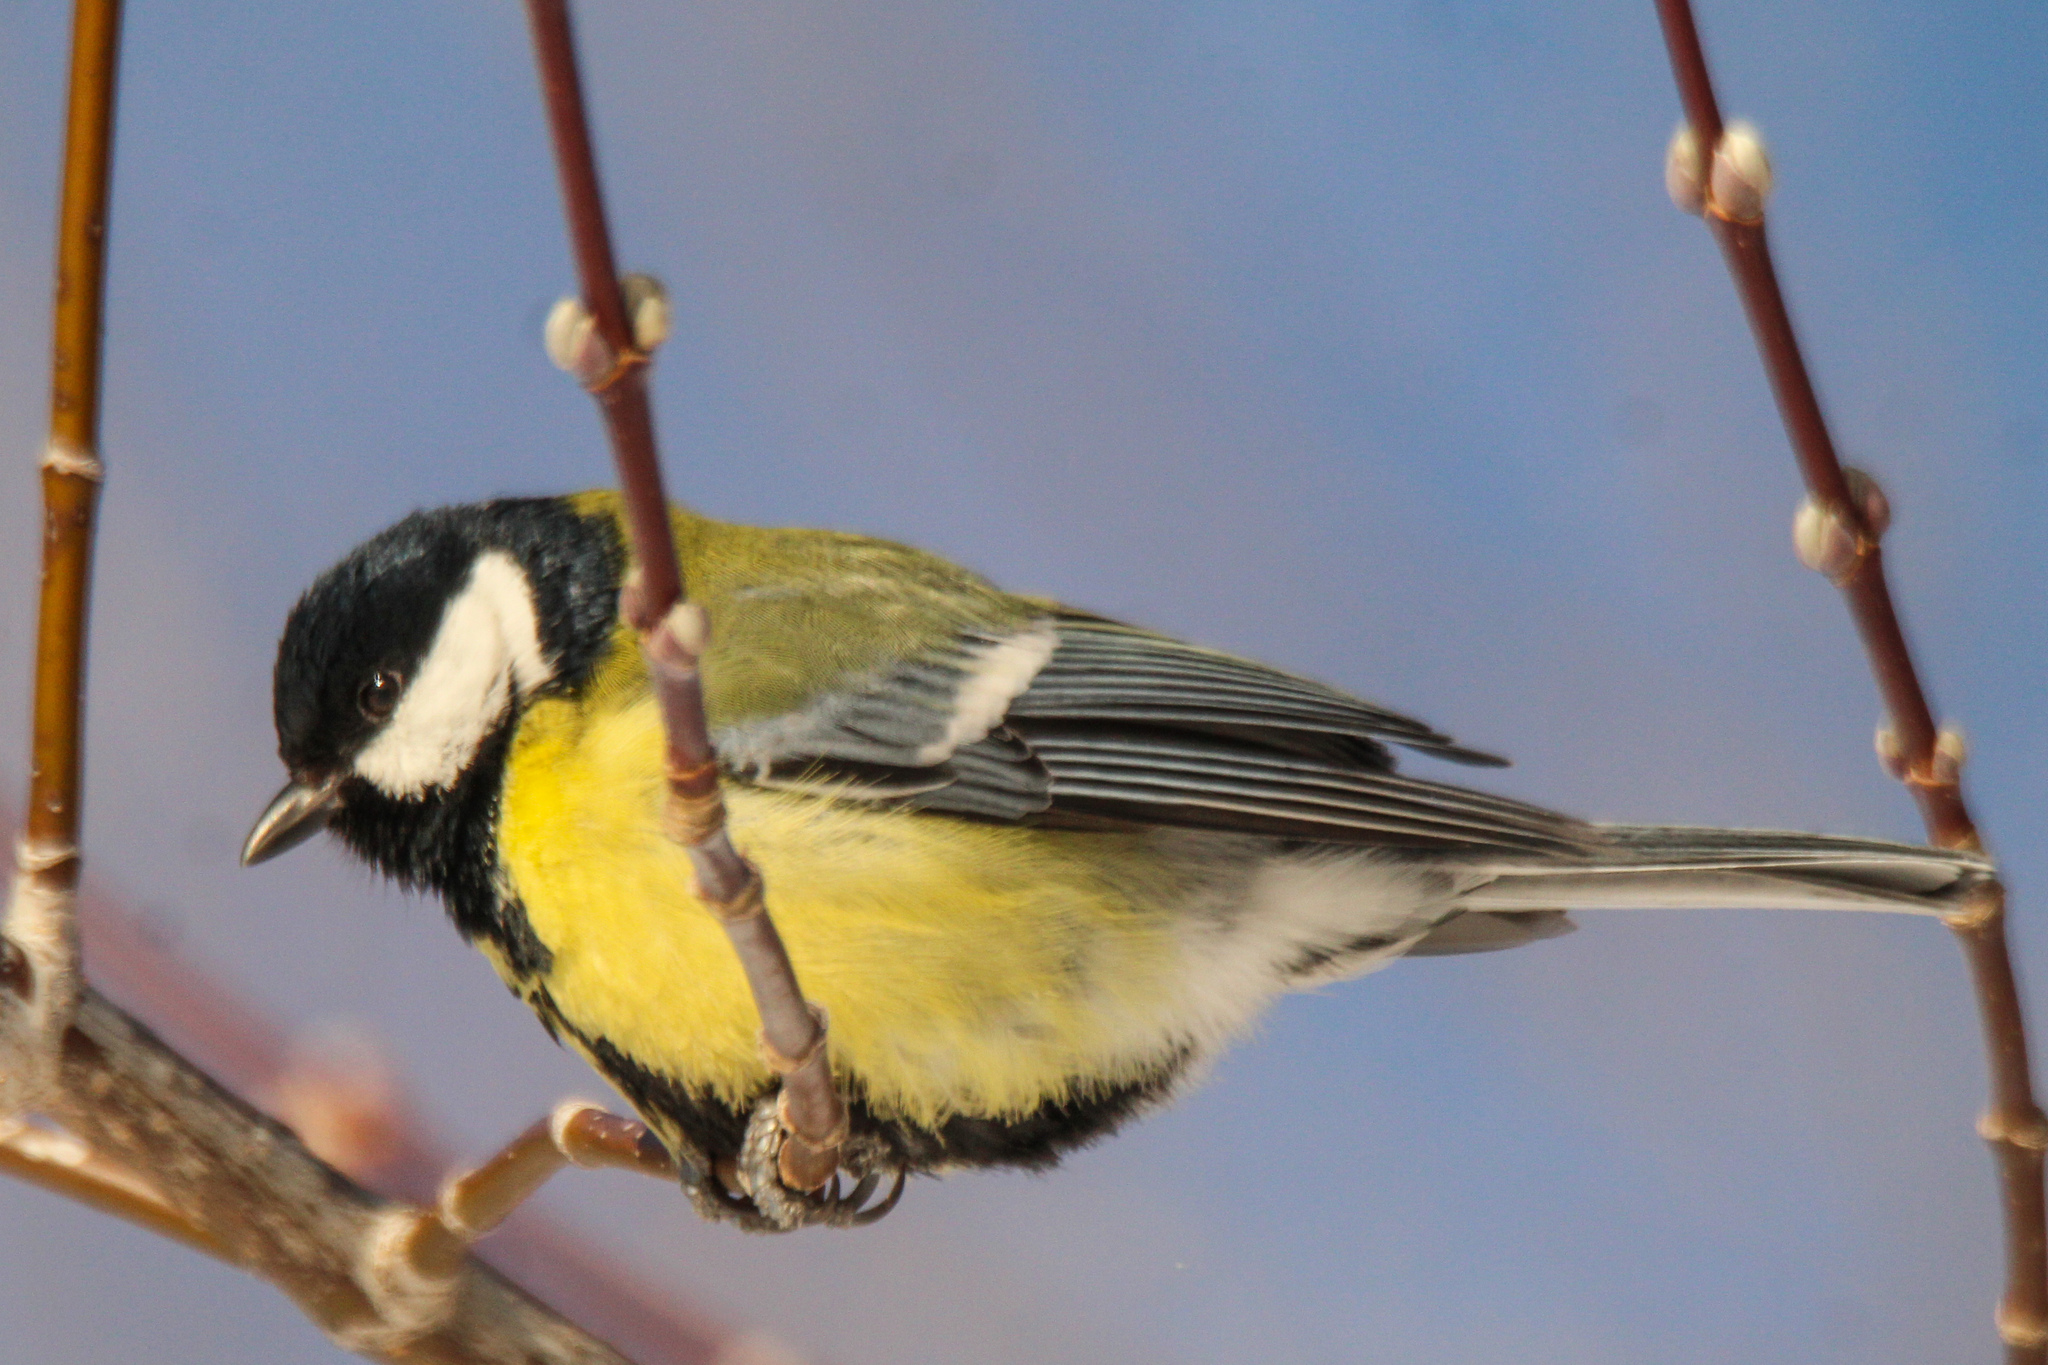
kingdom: Animalia
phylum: Chordata
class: Aves
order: Passeriformes
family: Paridae
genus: Parus
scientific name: Parus major
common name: Great tit
